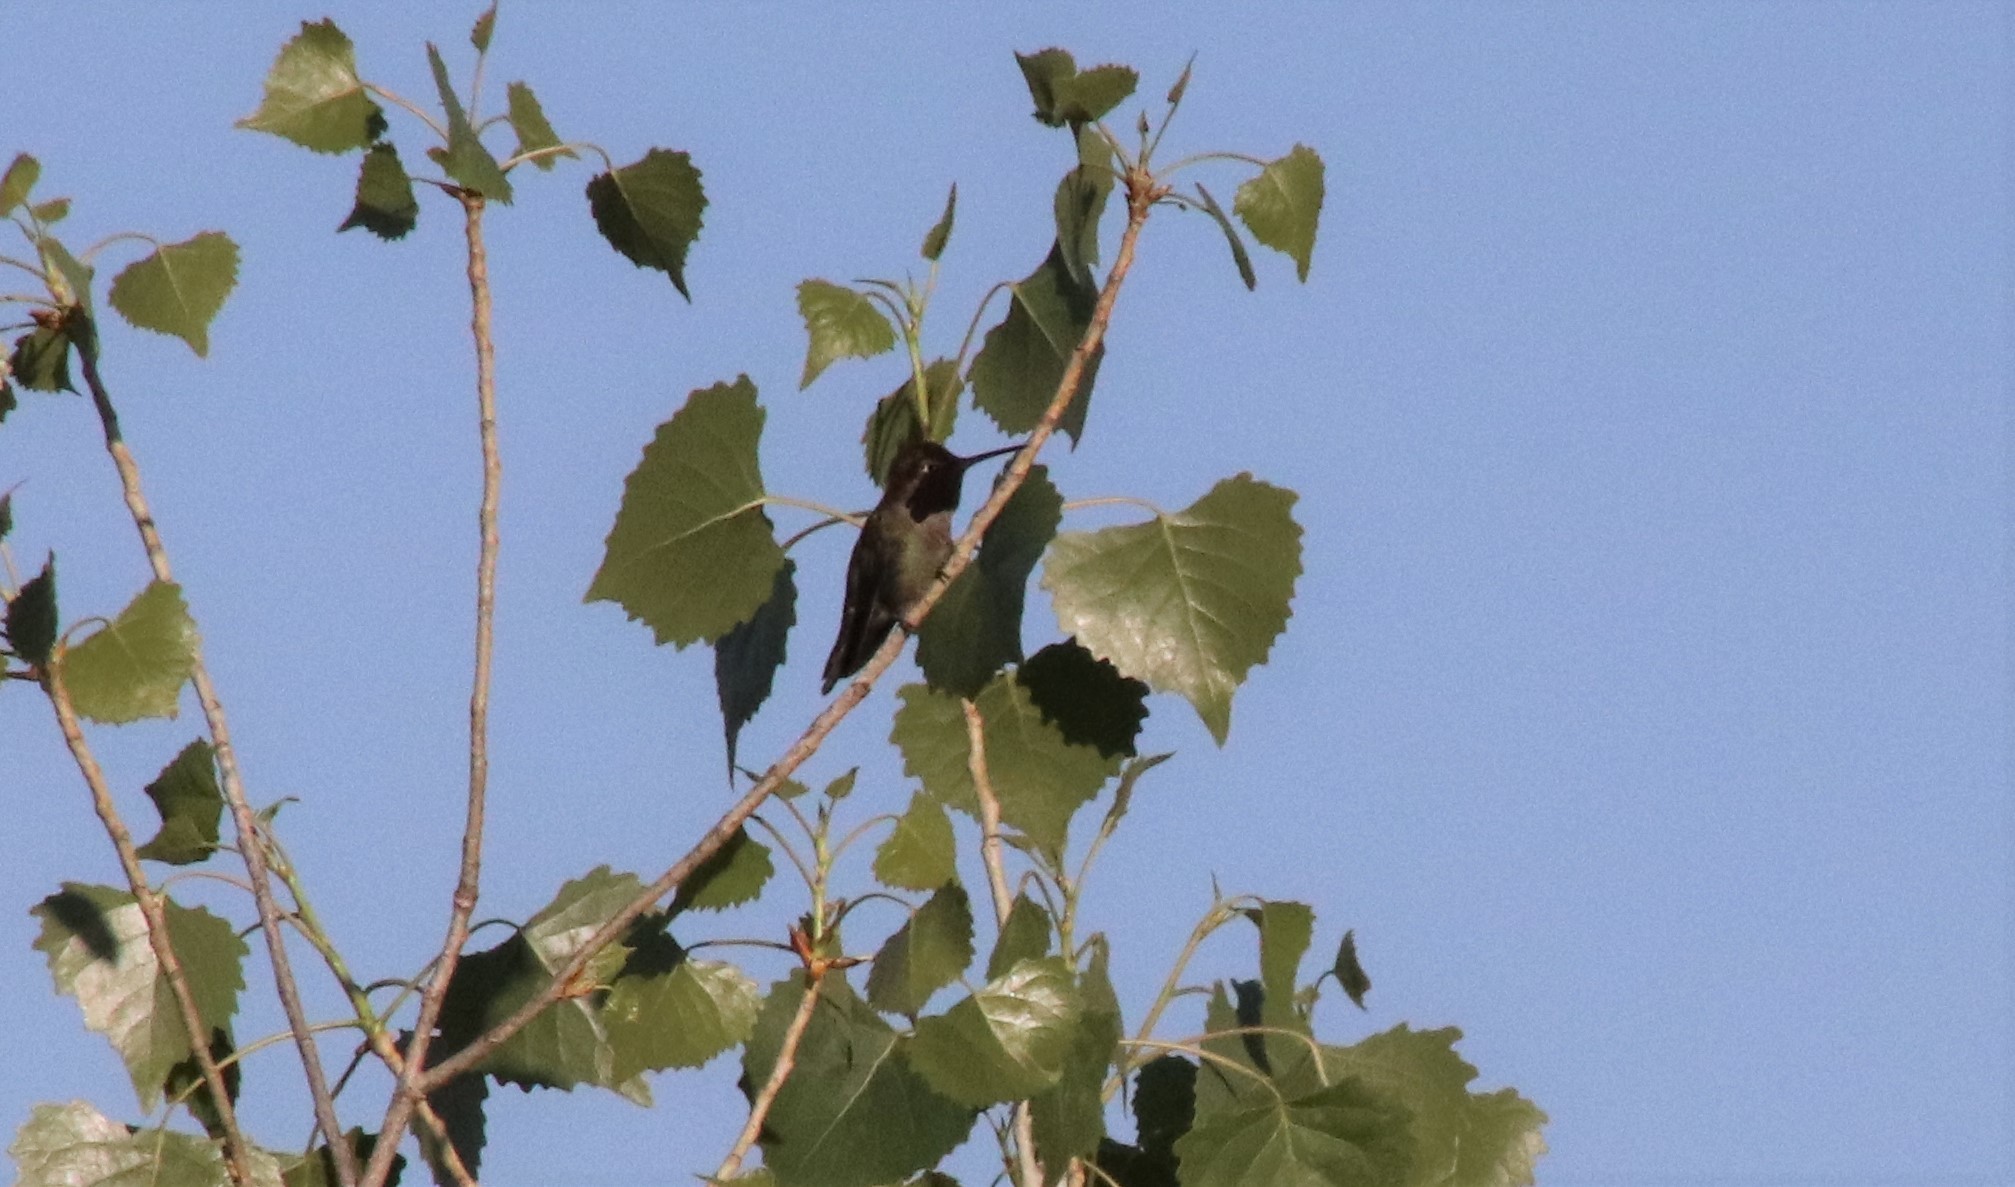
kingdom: Animalia
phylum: Chordata
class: Aves
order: Apodiformes
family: Trochilidae
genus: Calypte
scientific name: Calypte anna
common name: Anna's hummingbird
